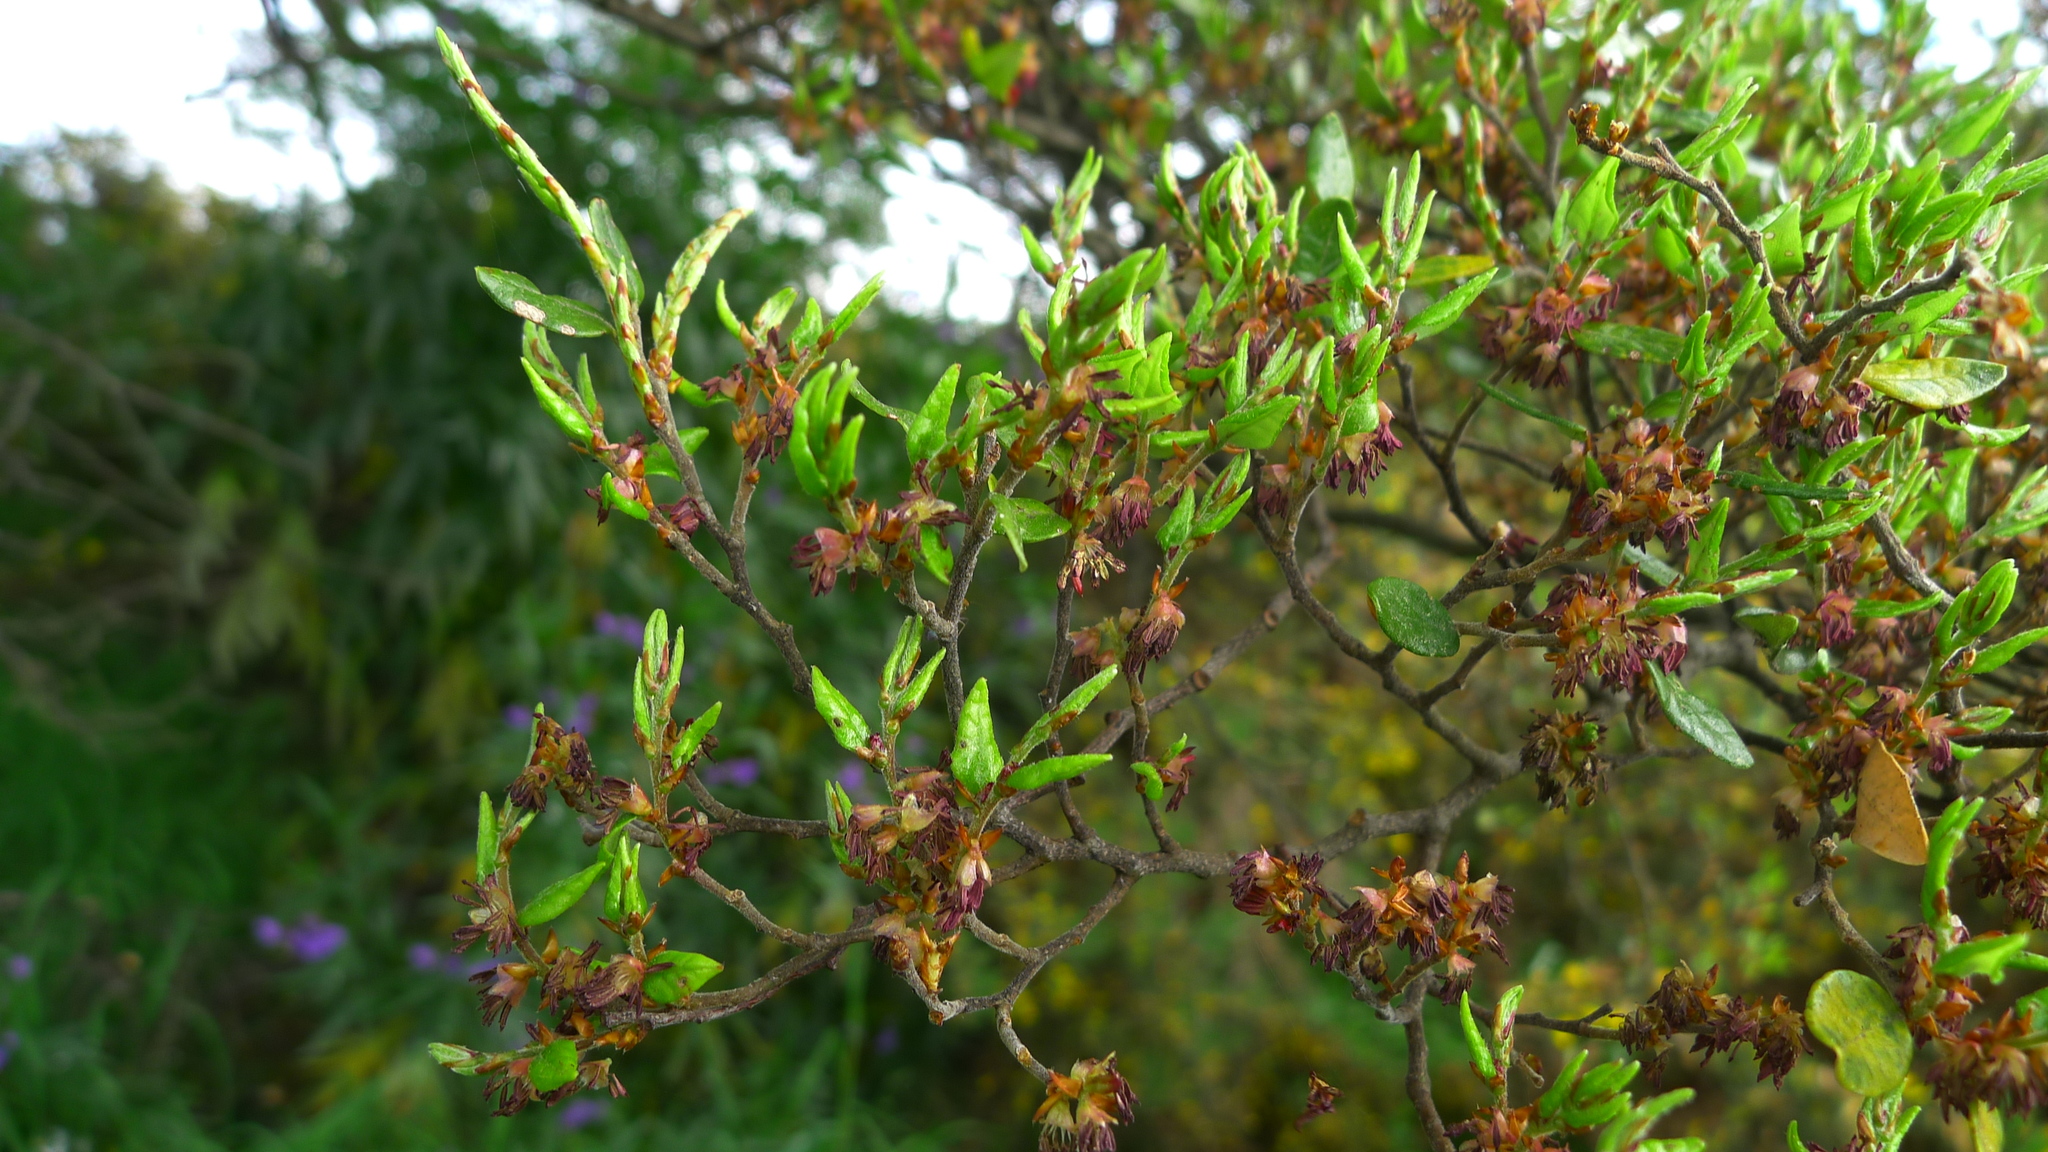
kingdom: Plantae
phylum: Tracheophyta
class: Magnoliopsida
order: Fagales
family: Nothofagaceae
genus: Nothofagus
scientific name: Nothofagus cliffortioides
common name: Mountain beech
